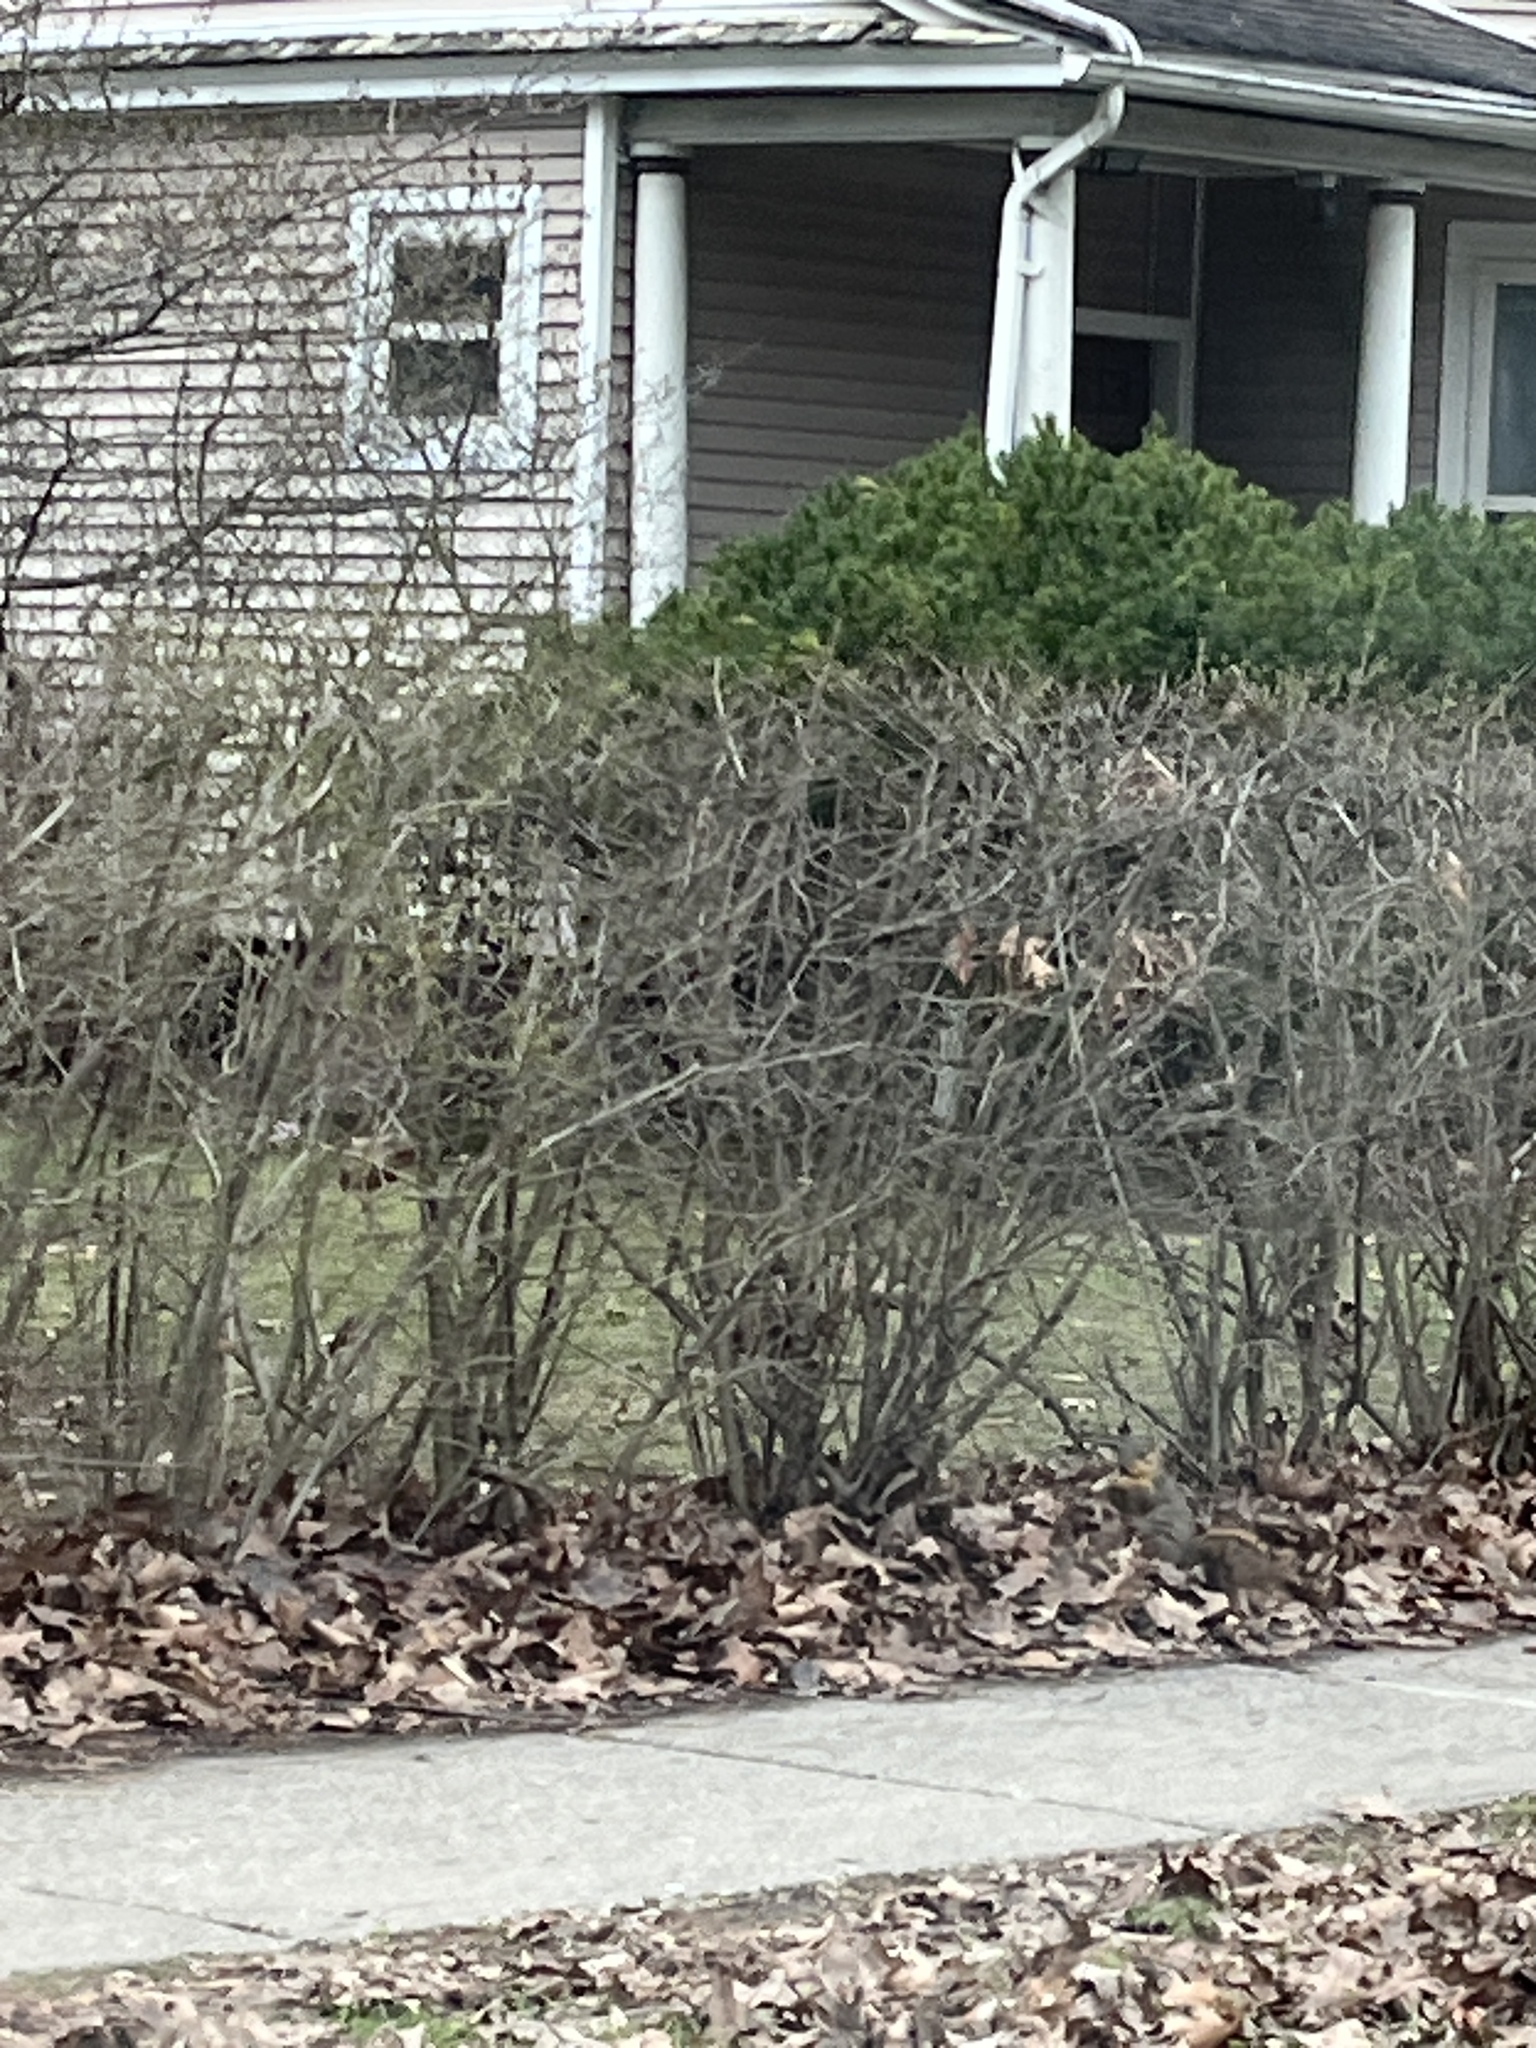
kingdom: Animalia
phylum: Chordata
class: Mammalia
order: Rodentia
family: Sciuridae
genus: Sciurus
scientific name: Sciurus niger
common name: Fox squirrel
